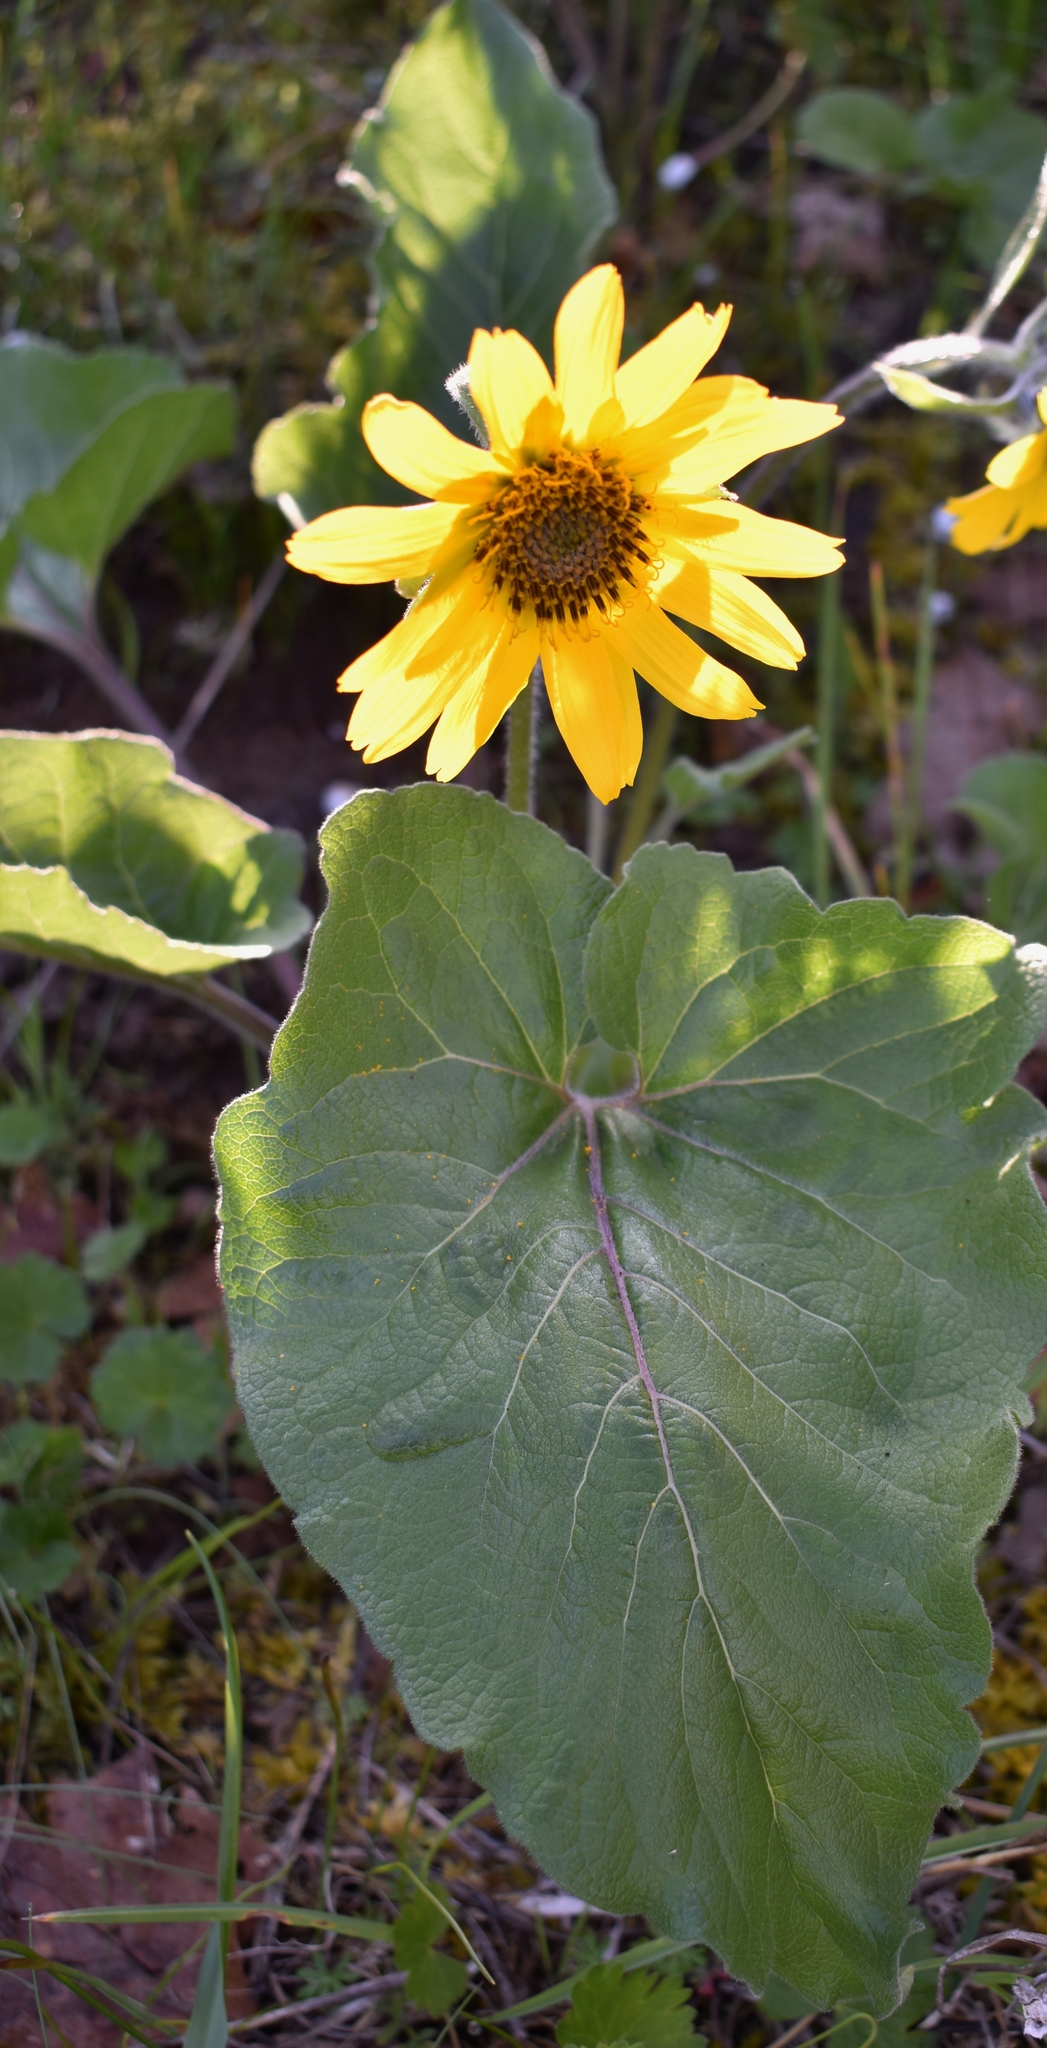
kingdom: Plantae
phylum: Tracheophyta
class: Magnoliopsida
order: Asterales
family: Asteraceae
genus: Balsamorhiza
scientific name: Balsamorhiza deltoidea
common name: Deltoid balsamroot
